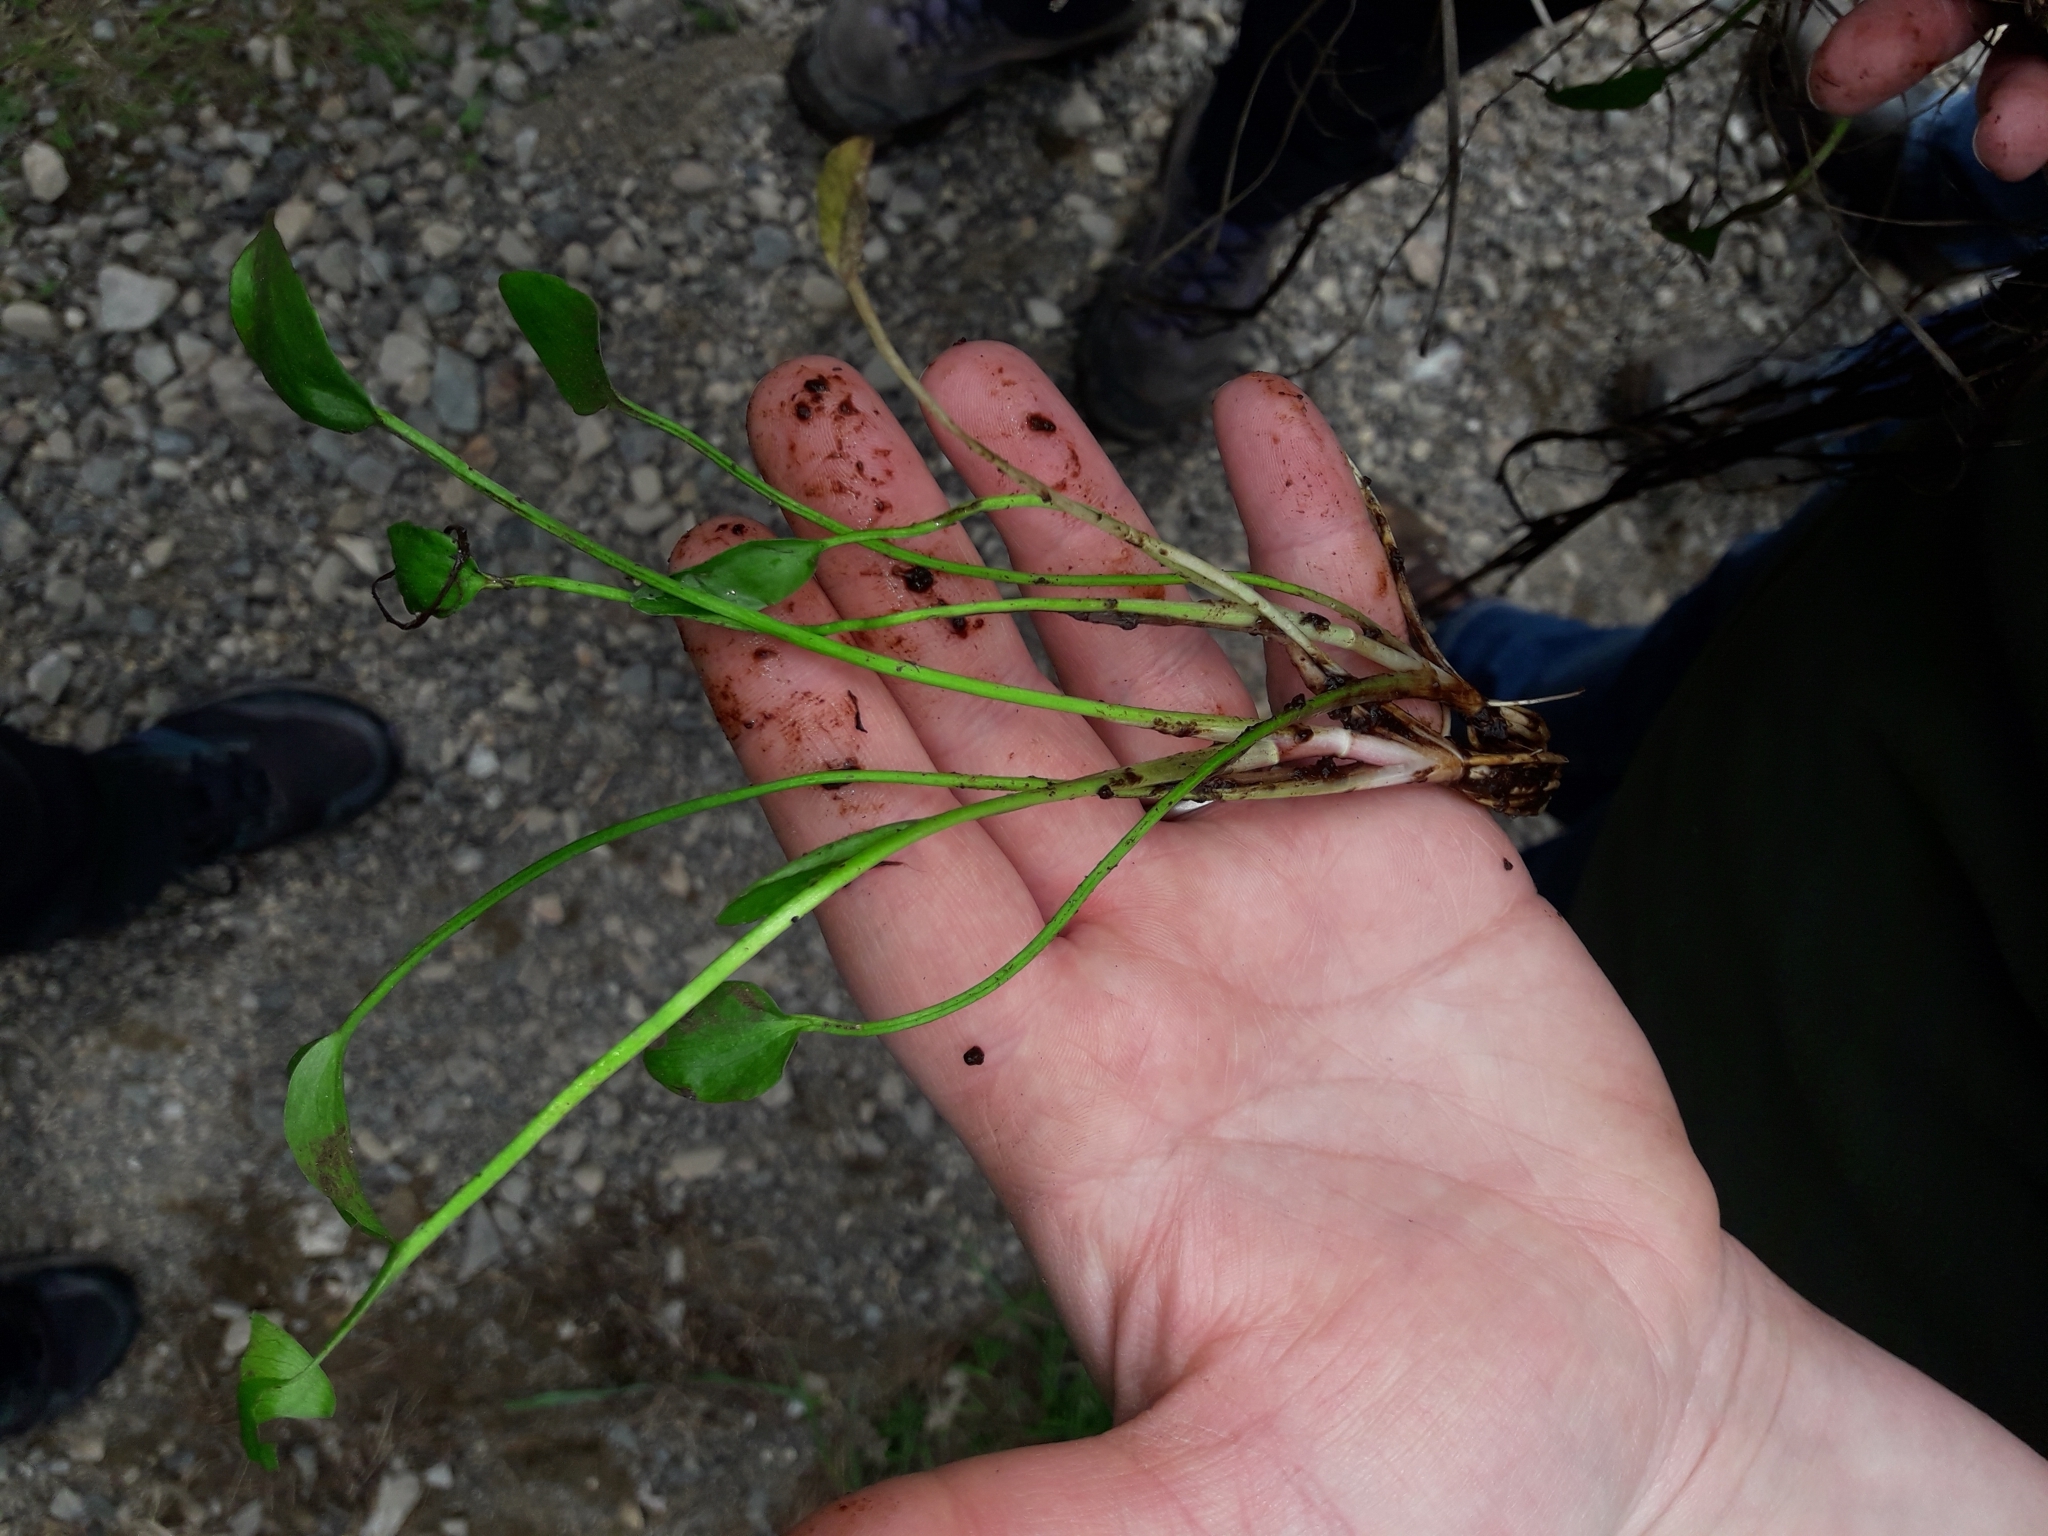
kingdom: Plantae
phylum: Tracheophyta
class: Magnoliopsida
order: Ranunculales
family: Ranunculaceae
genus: Ranunculus
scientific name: Ranunculus flammula
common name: Lesser spearwort
